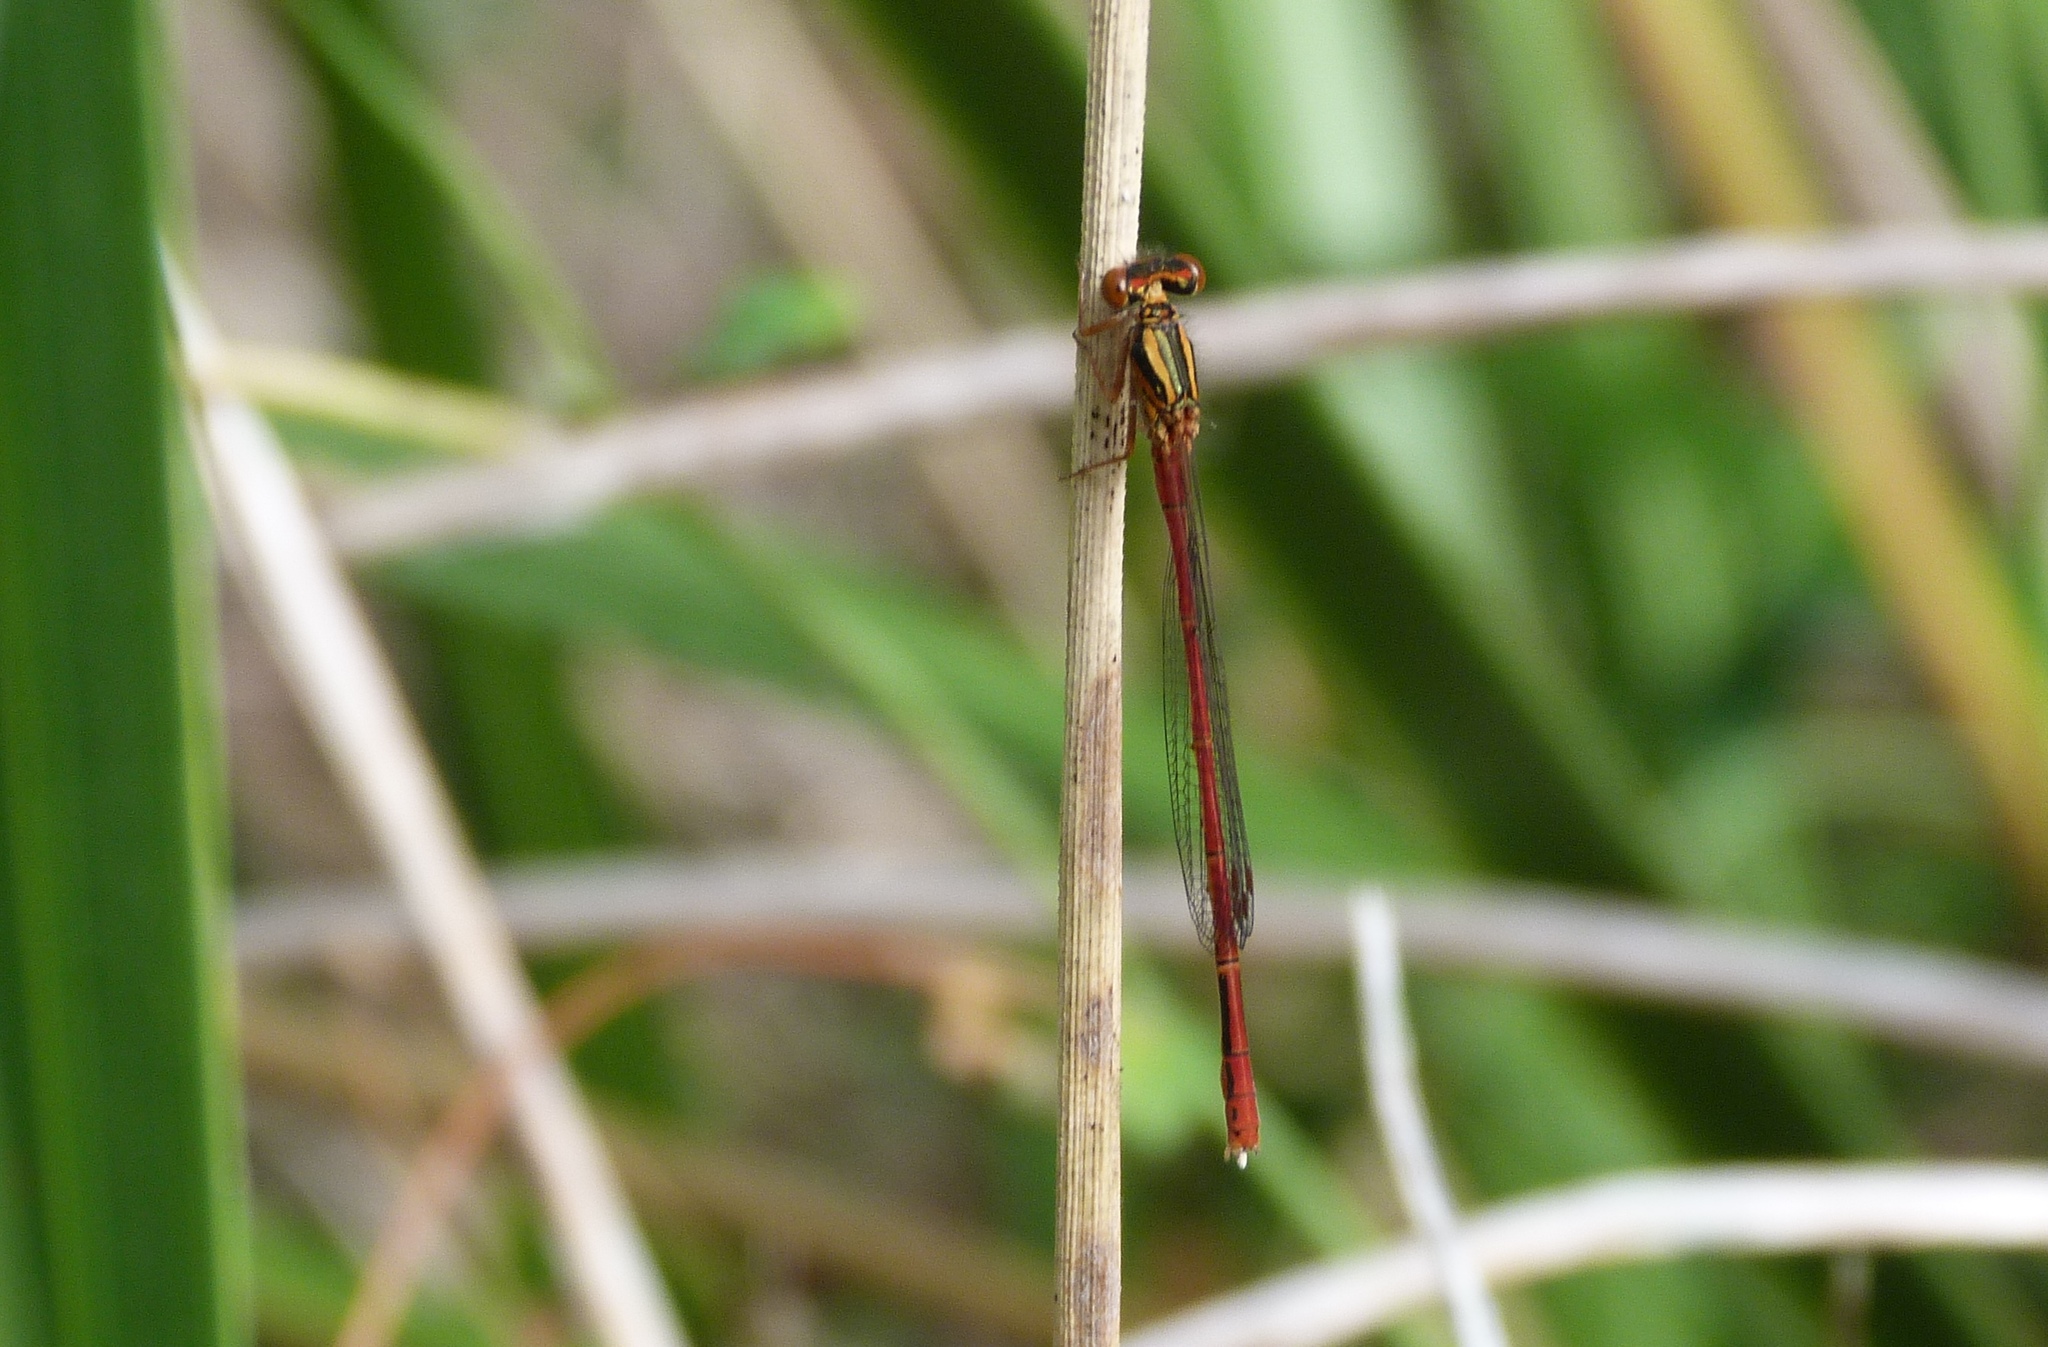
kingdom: Animalia
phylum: Arthropoda
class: Insecta
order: Odonata
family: Coenagrionidae
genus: Xanthocnemis
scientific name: Xanthocnemis zealandica
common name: Common redcoat damselfly
